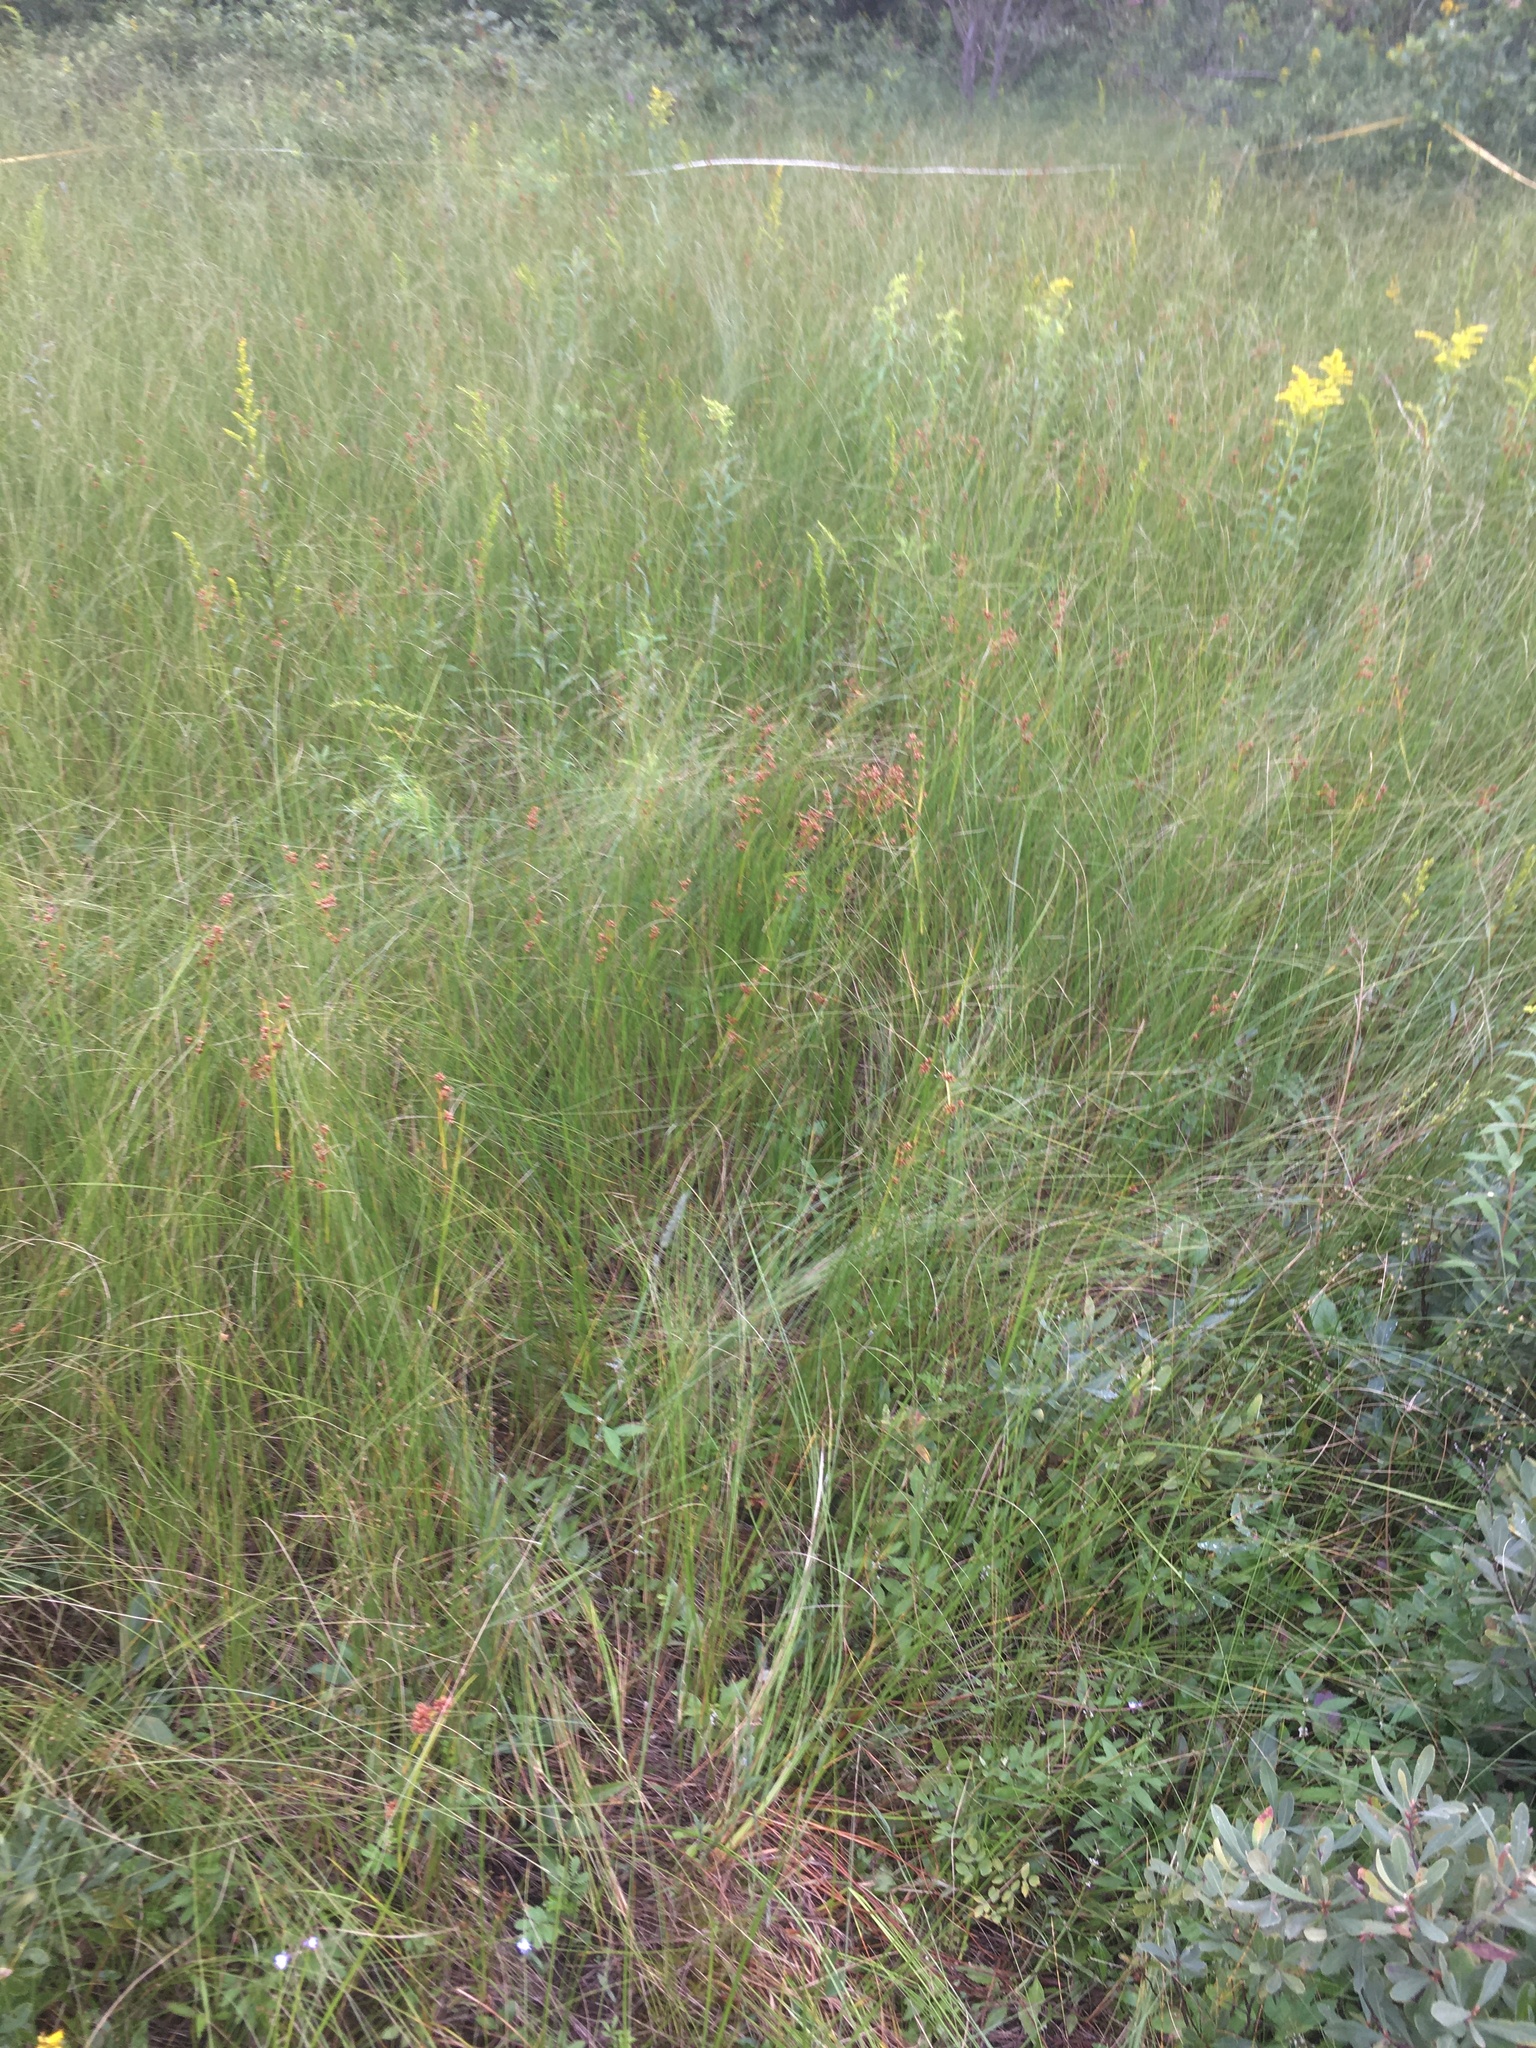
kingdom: Plantae
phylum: Tracheophyta
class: Liliopsida
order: Poales
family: Cyperaceae
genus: Cladium
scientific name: Cladium mariscoides
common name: Smooth sawgrass
